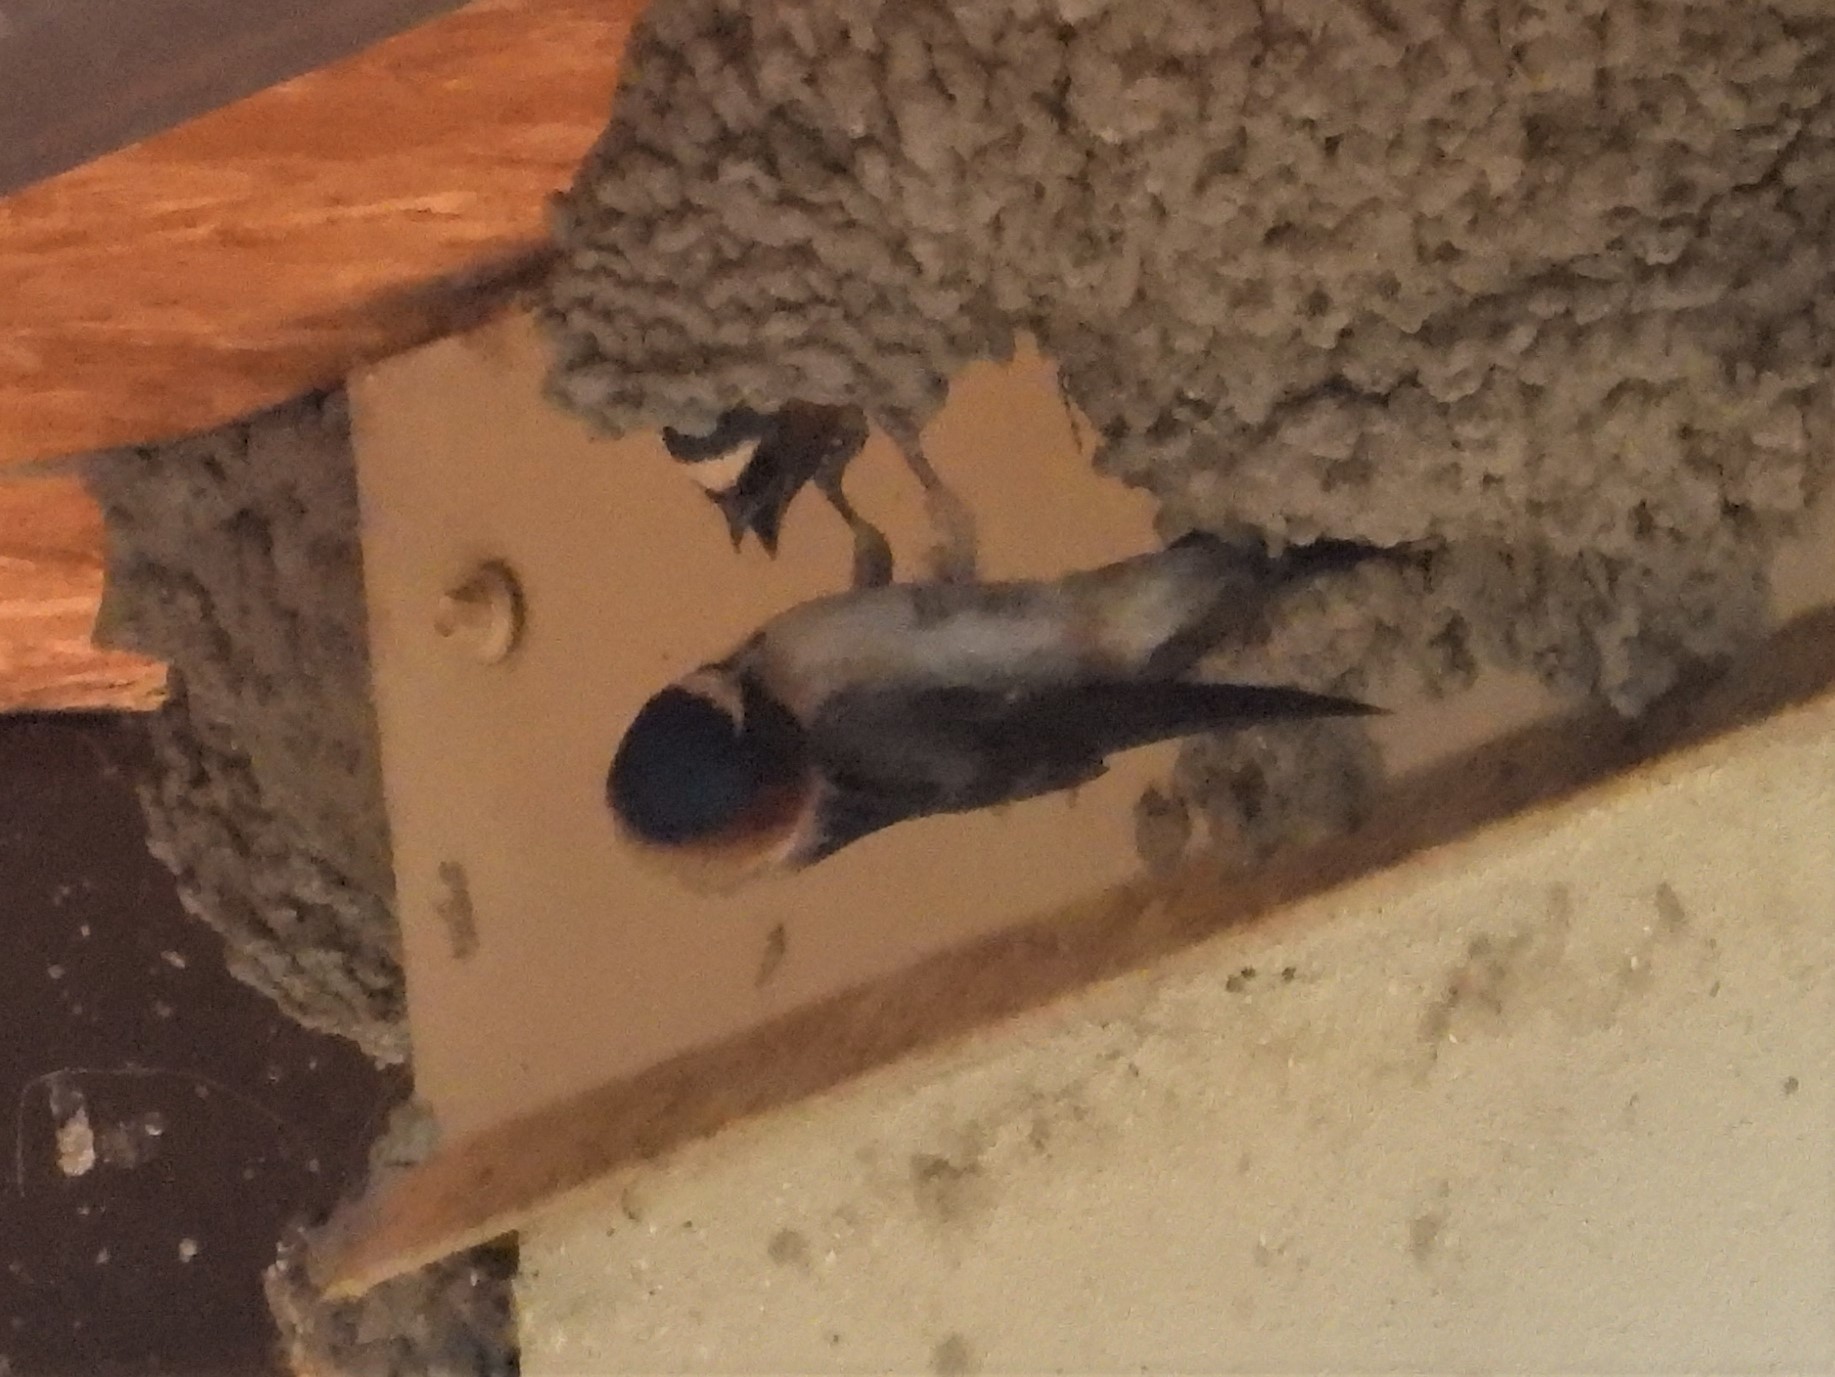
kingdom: Animalia
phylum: Chordata
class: Aves
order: Passeriformes
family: Hirundinidae
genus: Petrochelidon
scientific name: Petrochelidon pyrrhonota
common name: American cliff swallow
